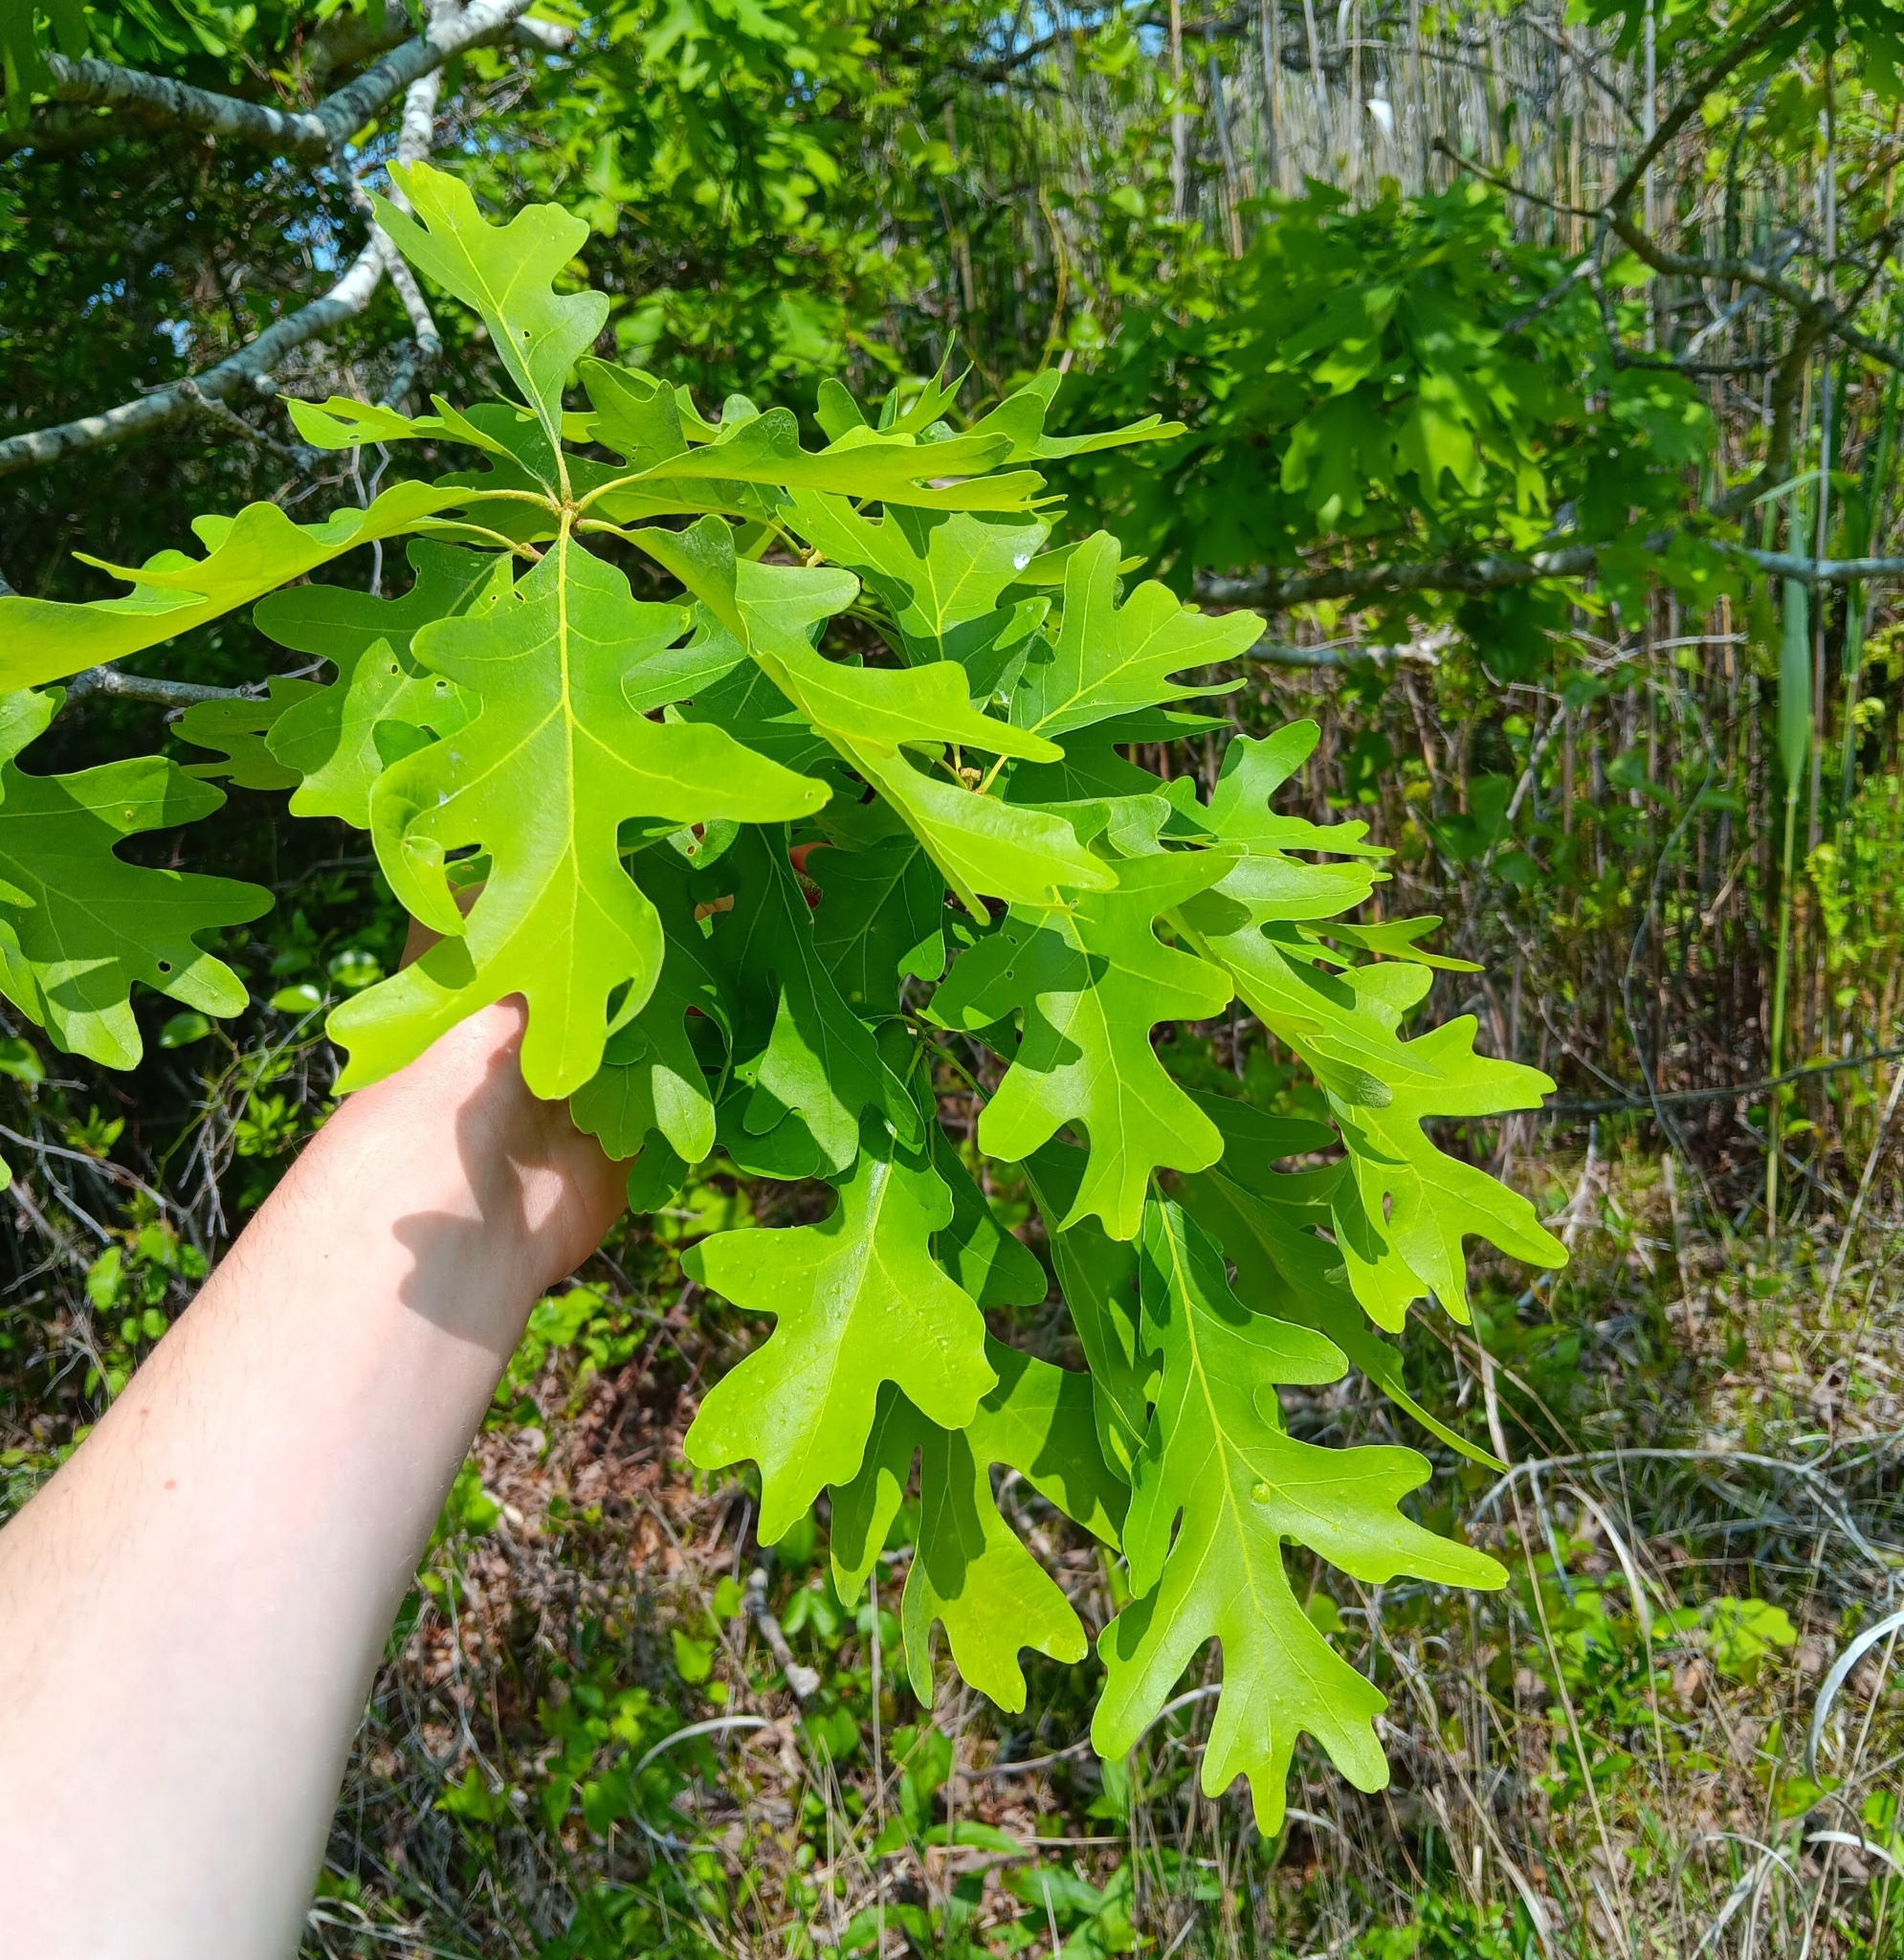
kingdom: Plantae
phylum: Tracheophyta
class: Magnoliopsida
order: Fagales
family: Fagaceae
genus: Quercus
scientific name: Quercus alba
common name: White oak
